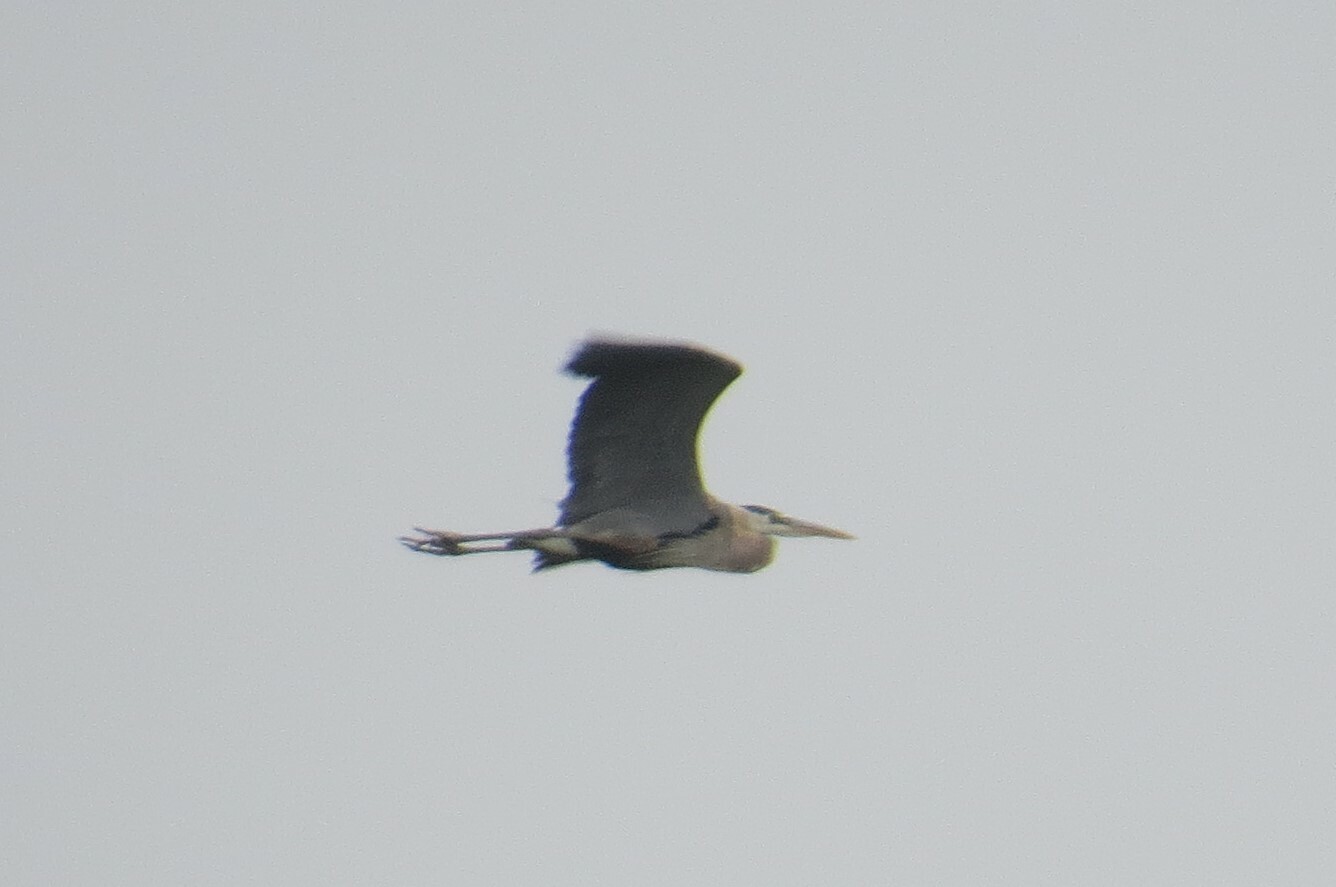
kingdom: Animalia
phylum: Chordata
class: Aves
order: Pelecaniformes
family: Ardeidae
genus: Ardea
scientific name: Ardea herodias
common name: Great blue heron
